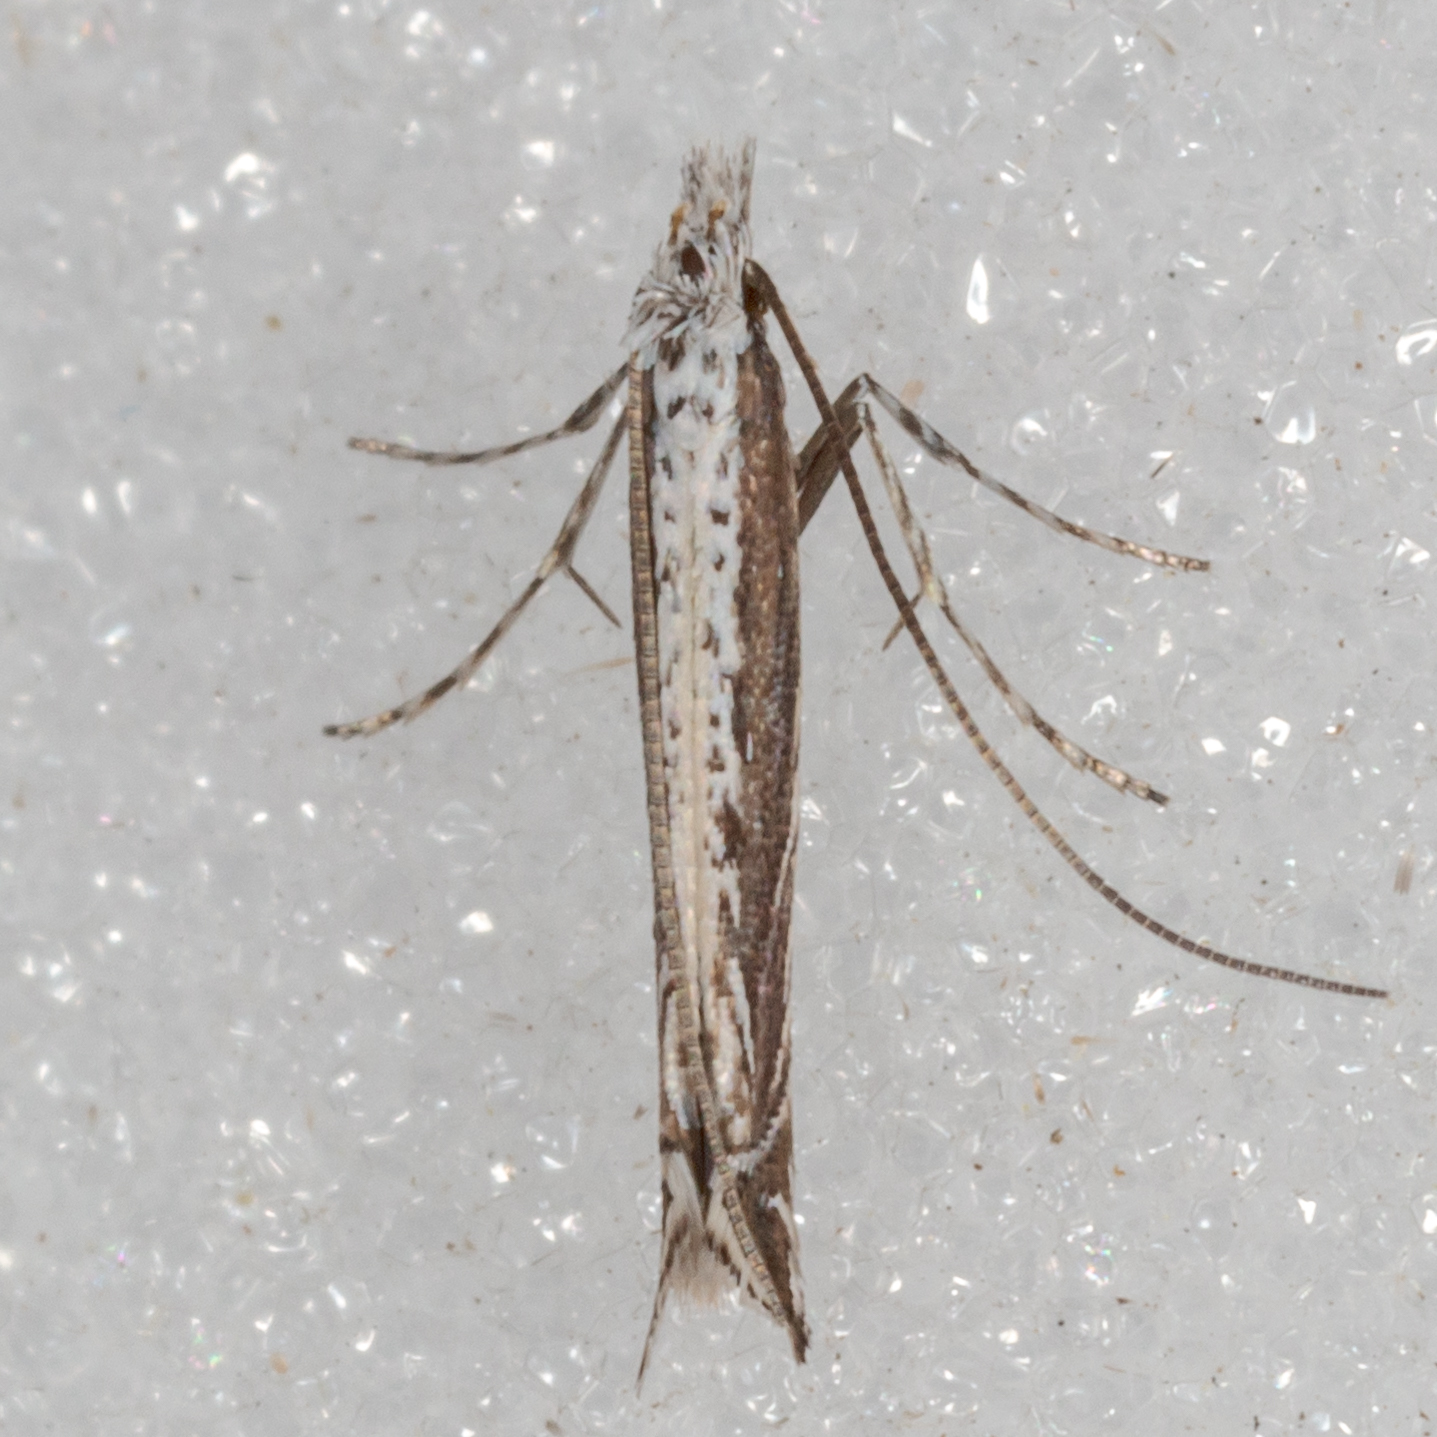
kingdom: Plantae
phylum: Rhodophyta
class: Florideophyceae
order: Gracilariales
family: Gracilariaceae
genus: Gracilaria
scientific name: Gracilaria
